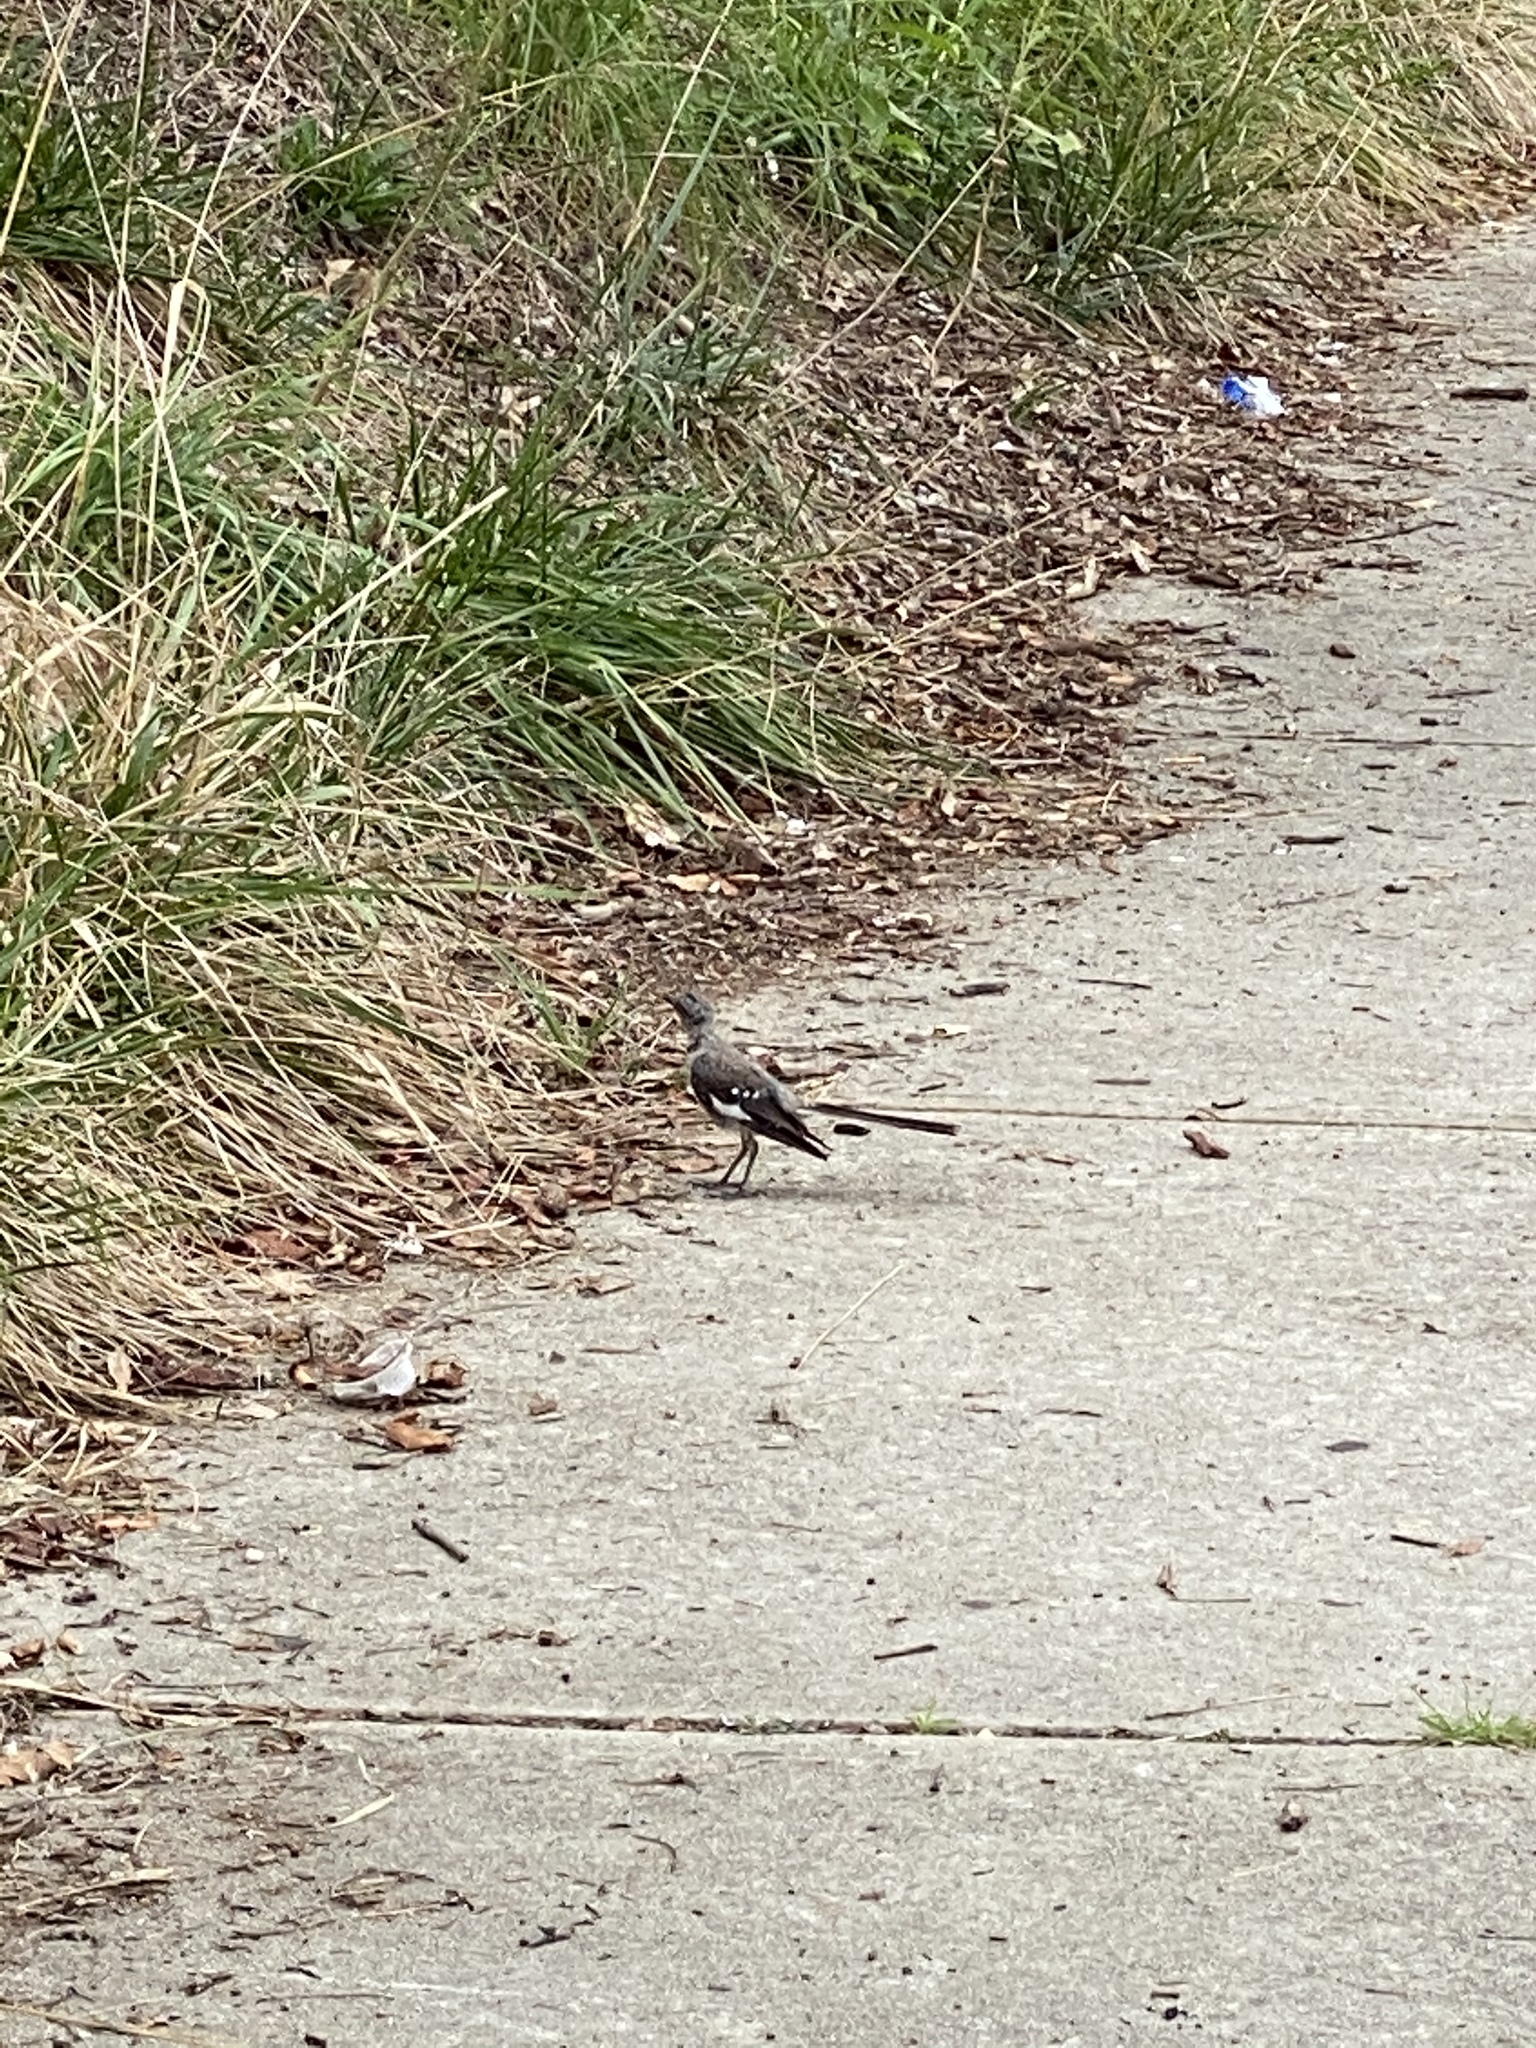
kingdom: Animalia
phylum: Chordata
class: Aves
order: Passeriformes
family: Mimidae
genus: Mimus
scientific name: Mimus polyglottos
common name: Northern mockingbird
